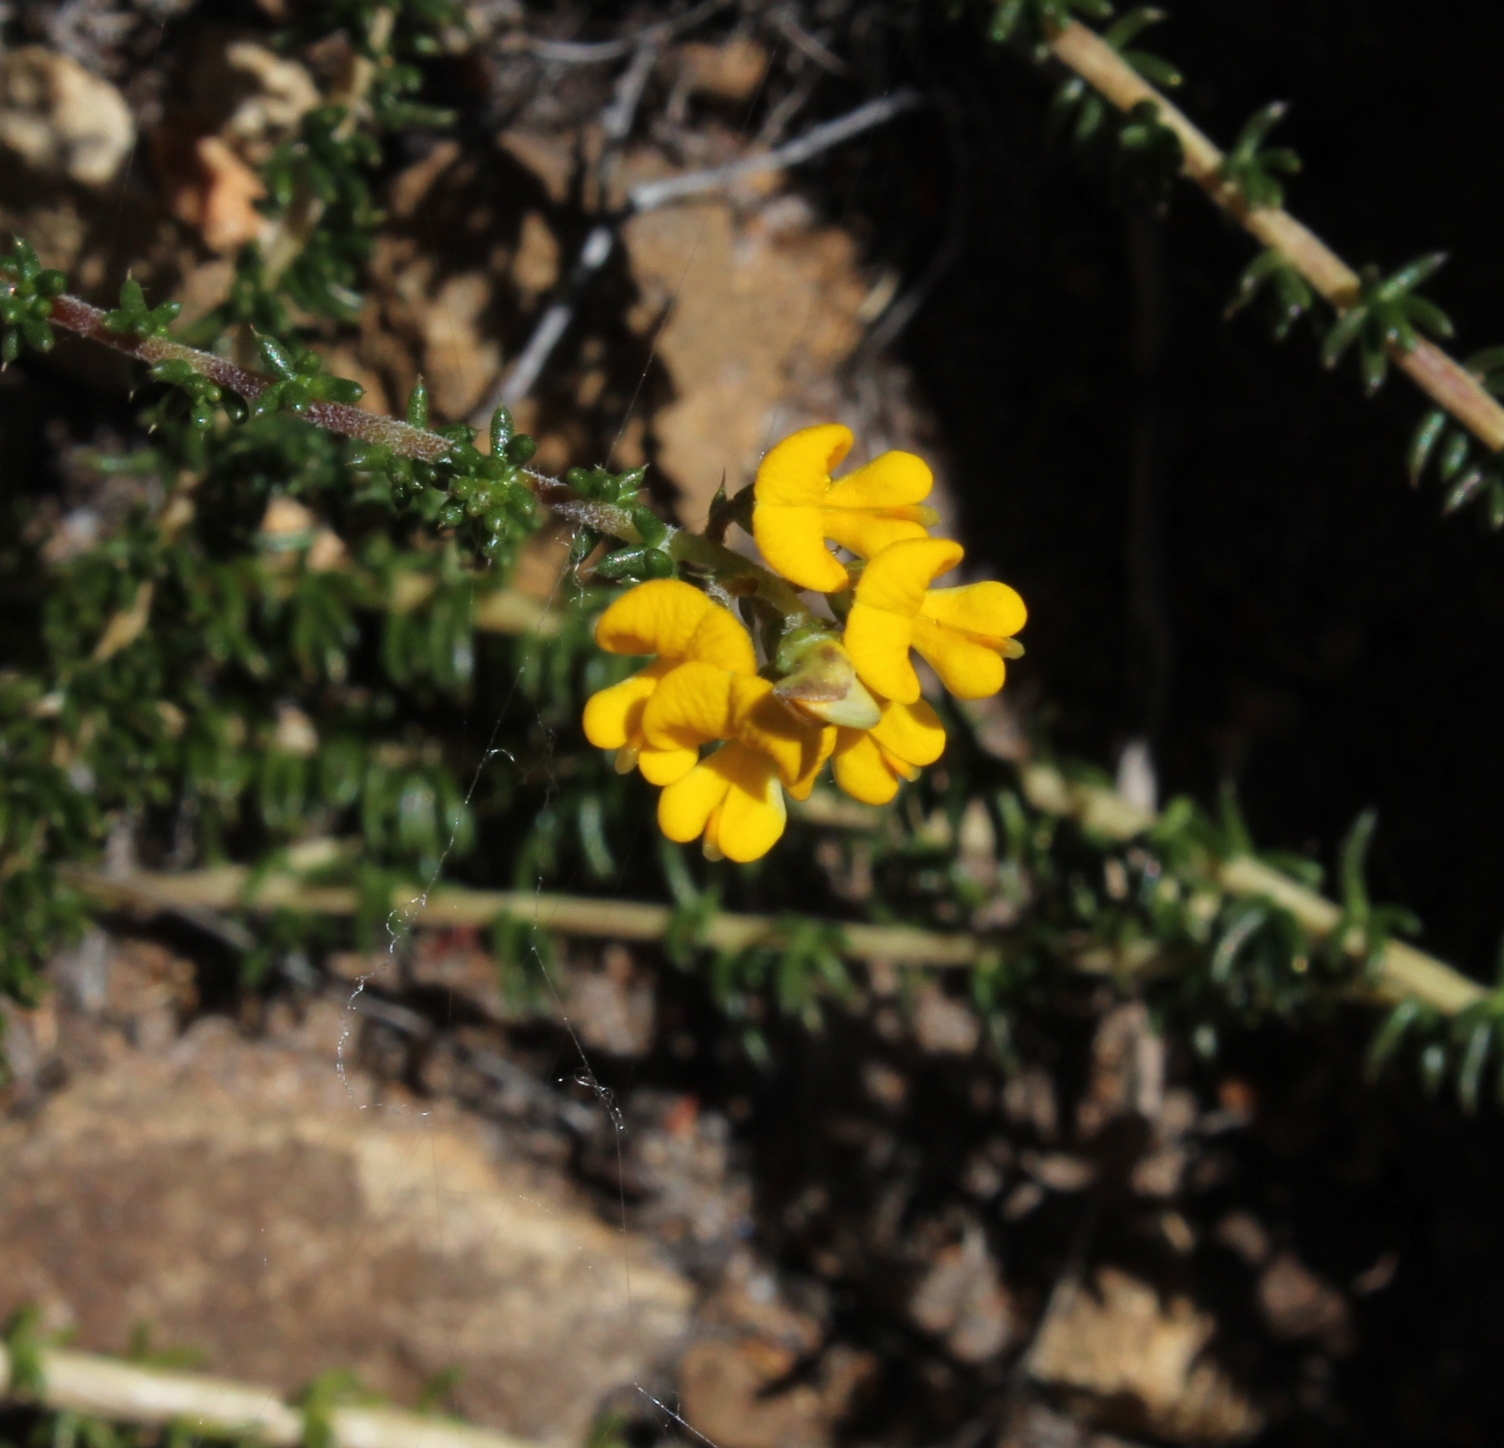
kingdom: Plantae
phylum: Tracheophyta
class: Magnoliopsida
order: Fabales
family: Fabaceae
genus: Aspalathus
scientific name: Aspalathus divaricata
